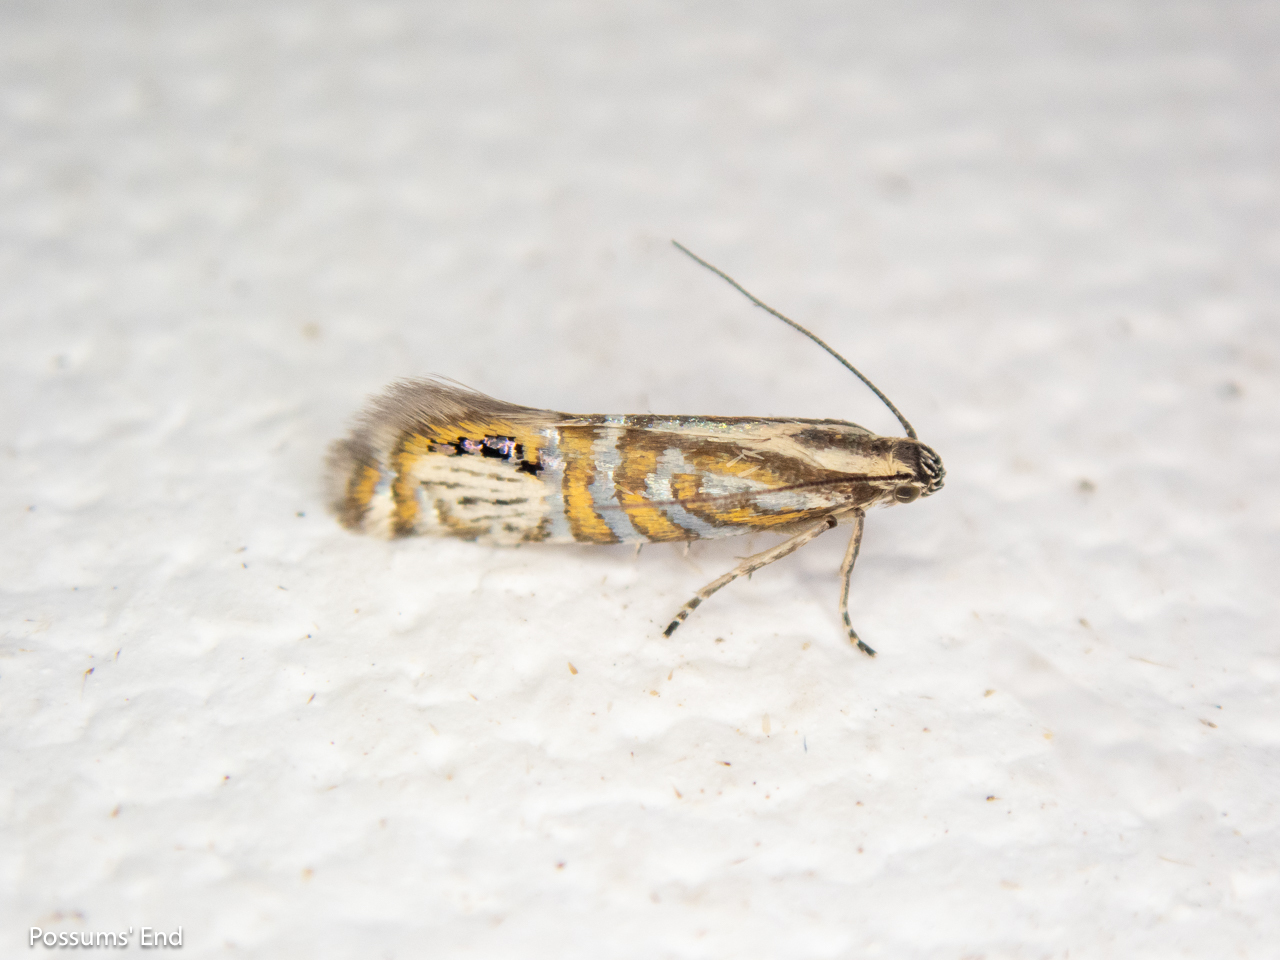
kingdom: Animalia
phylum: Arthropoda
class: Insecta
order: Lepidoptera
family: Glyphipterigidae
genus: Glyphipterix
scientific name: Glyphipterix triselena
